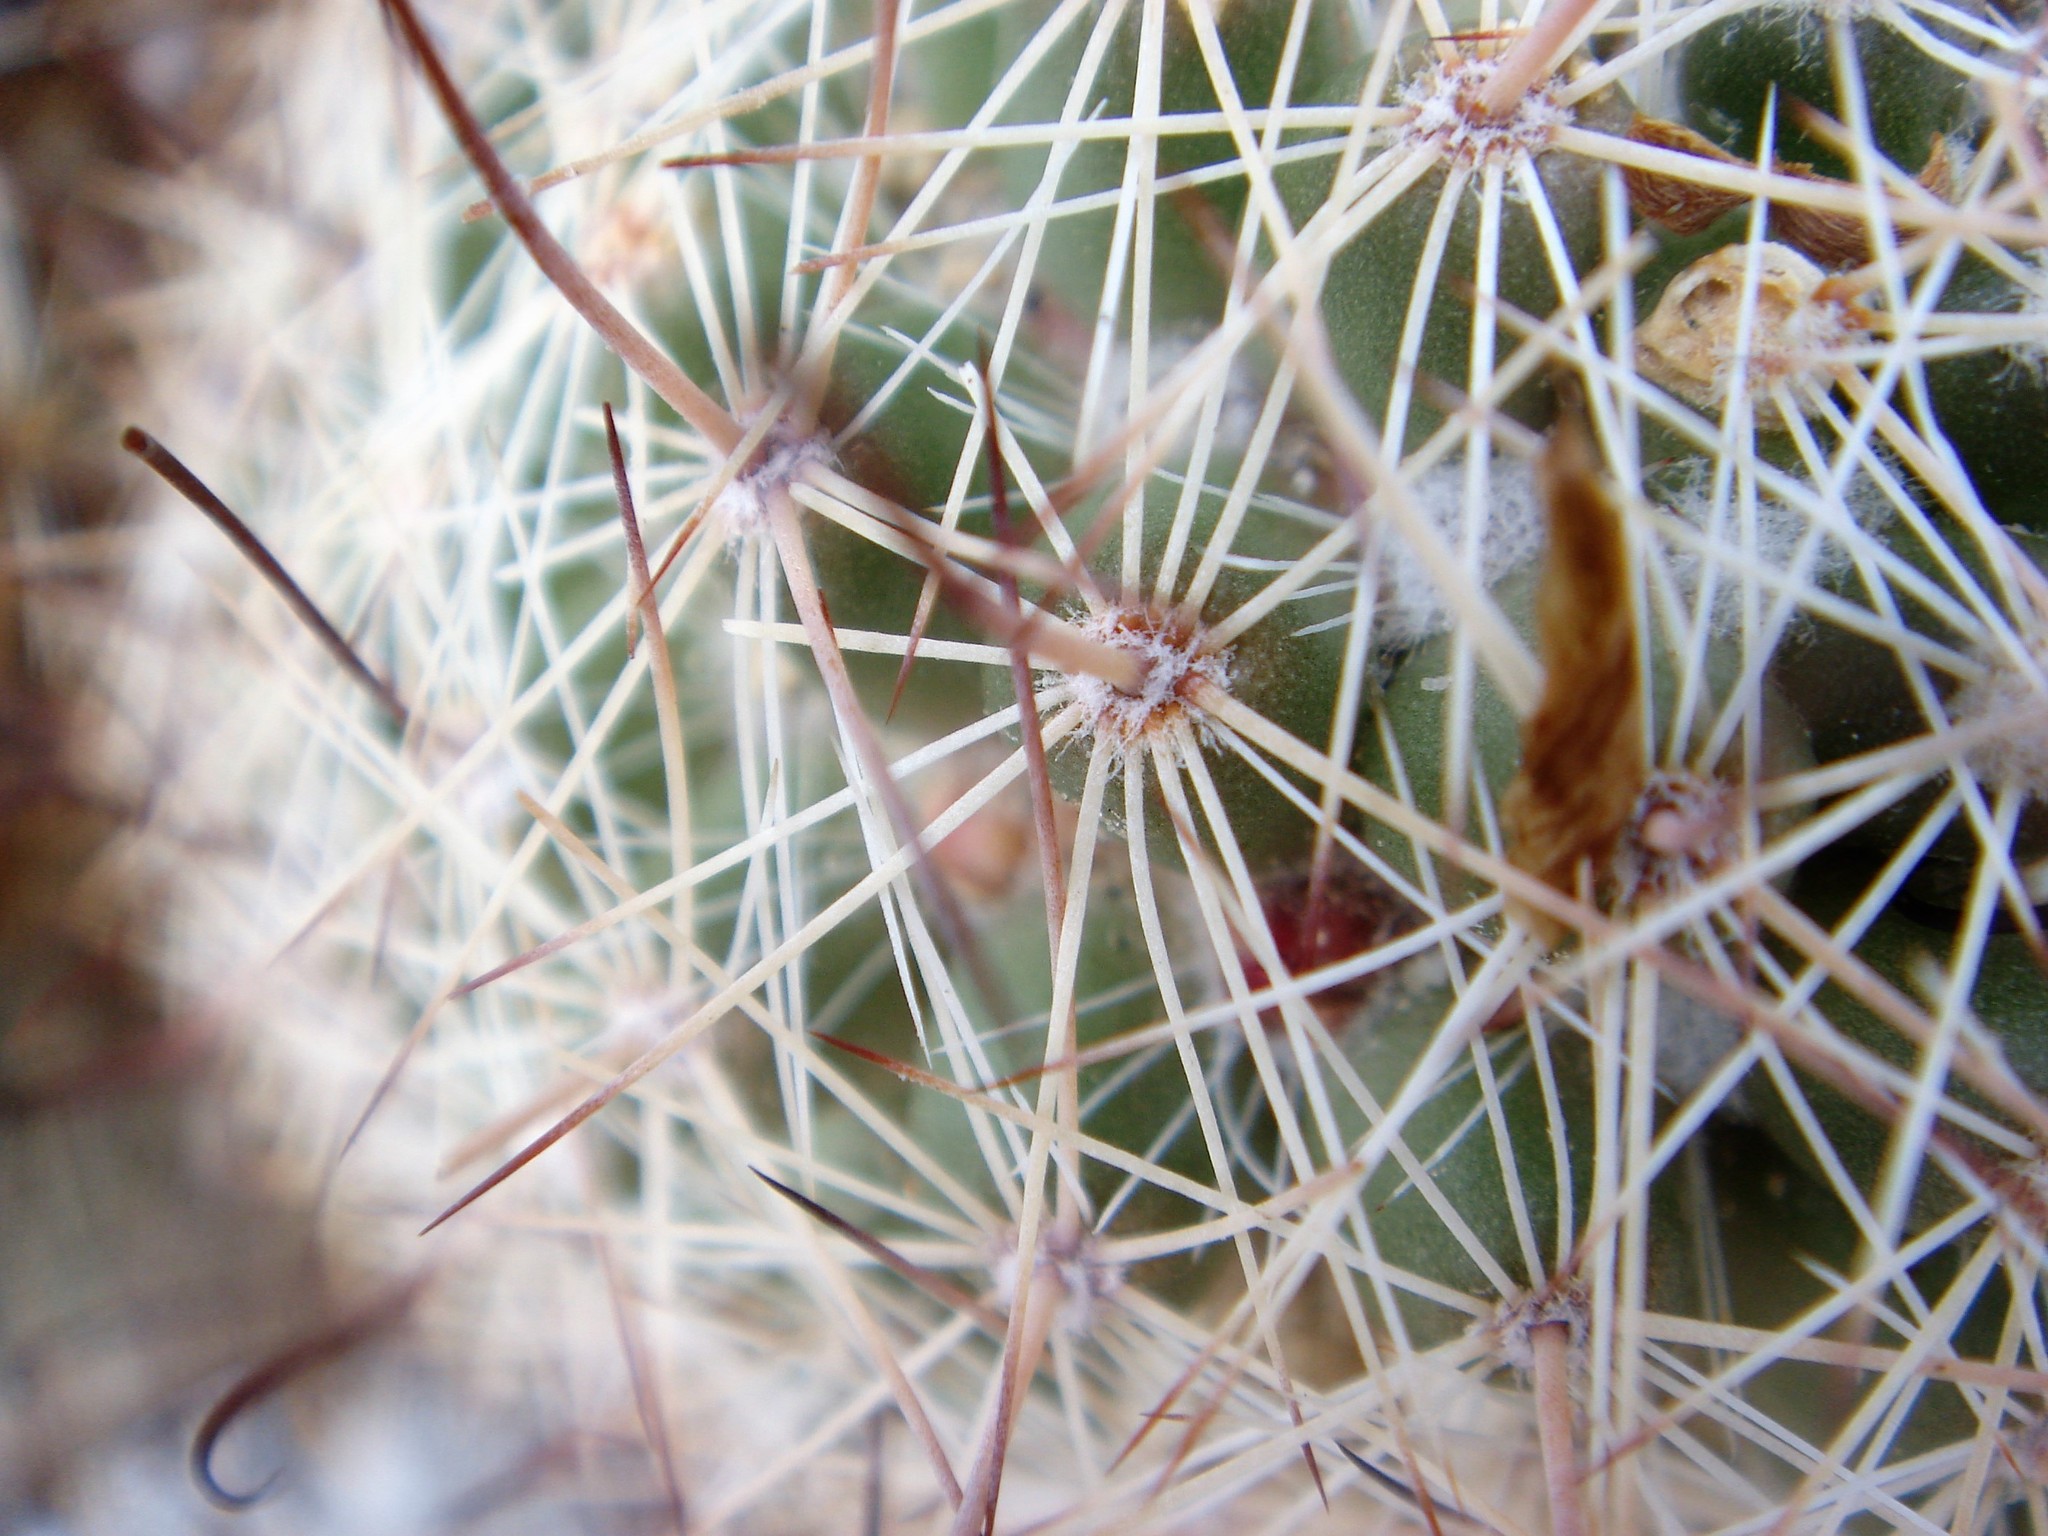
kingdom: Plantae
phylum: Tracheophyta
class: Magnoliopsida
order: Caryophyllales
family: Cactaceae
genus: Cochemiea
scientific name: Cochemiea dioica
